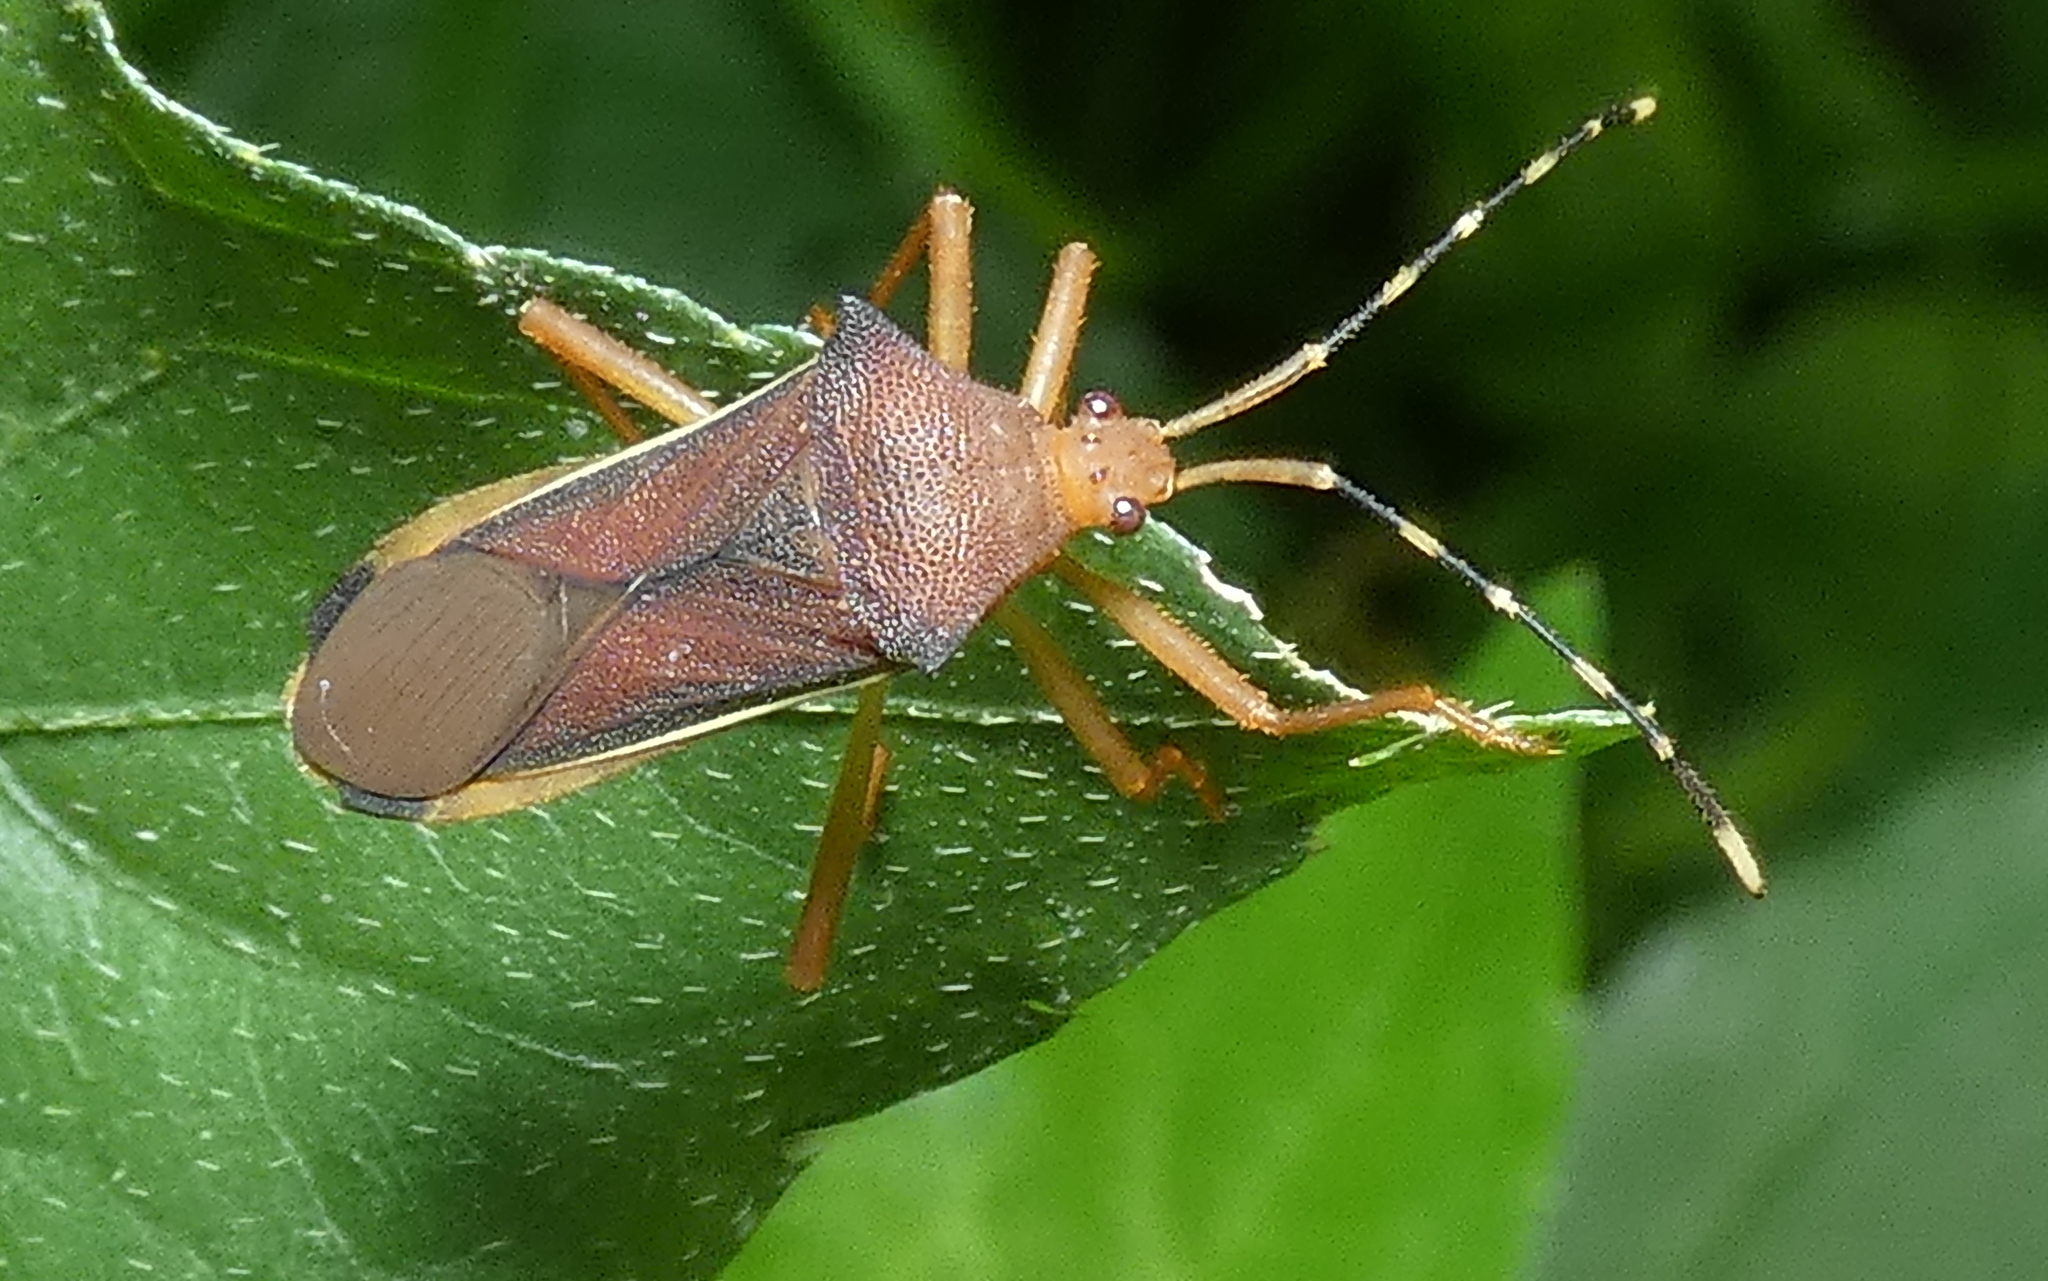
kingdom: Animalia
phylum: Arthropoda
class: Insecta
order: Hemiptera
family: Coreidae
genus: Anasa
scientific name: Anasa varicornis
